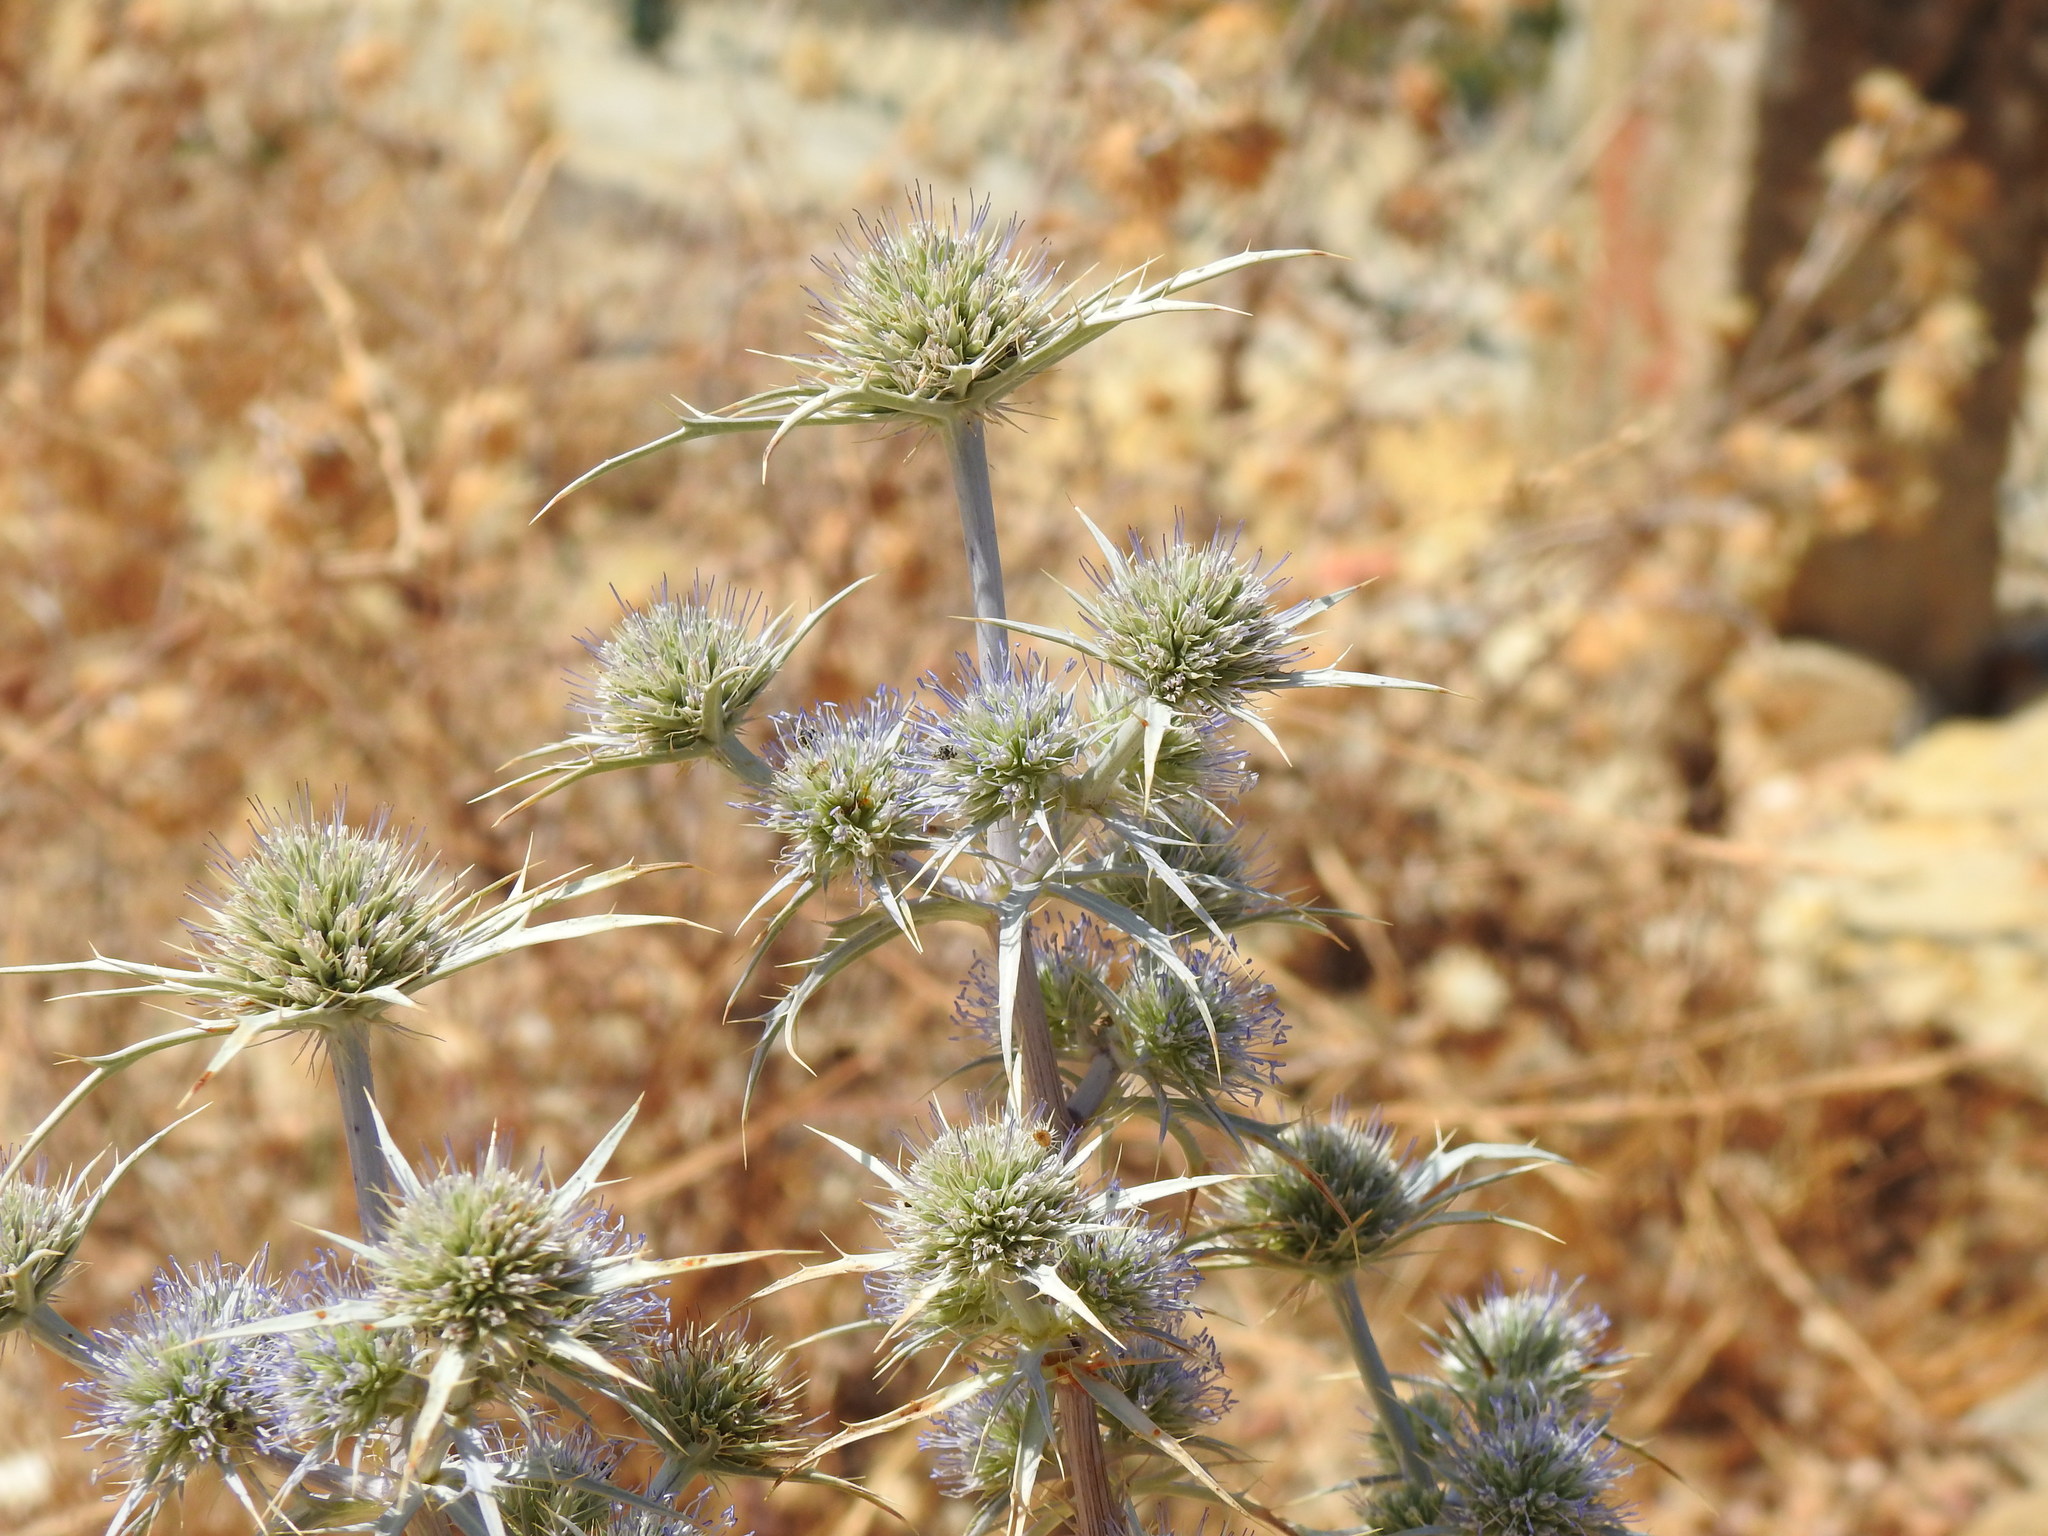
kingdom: Plantae
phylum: Tracheophyta
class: Magnoliopsida
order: Apiales
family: Apiaceae
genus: Eryngium
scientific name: Eryngium dilatatum
